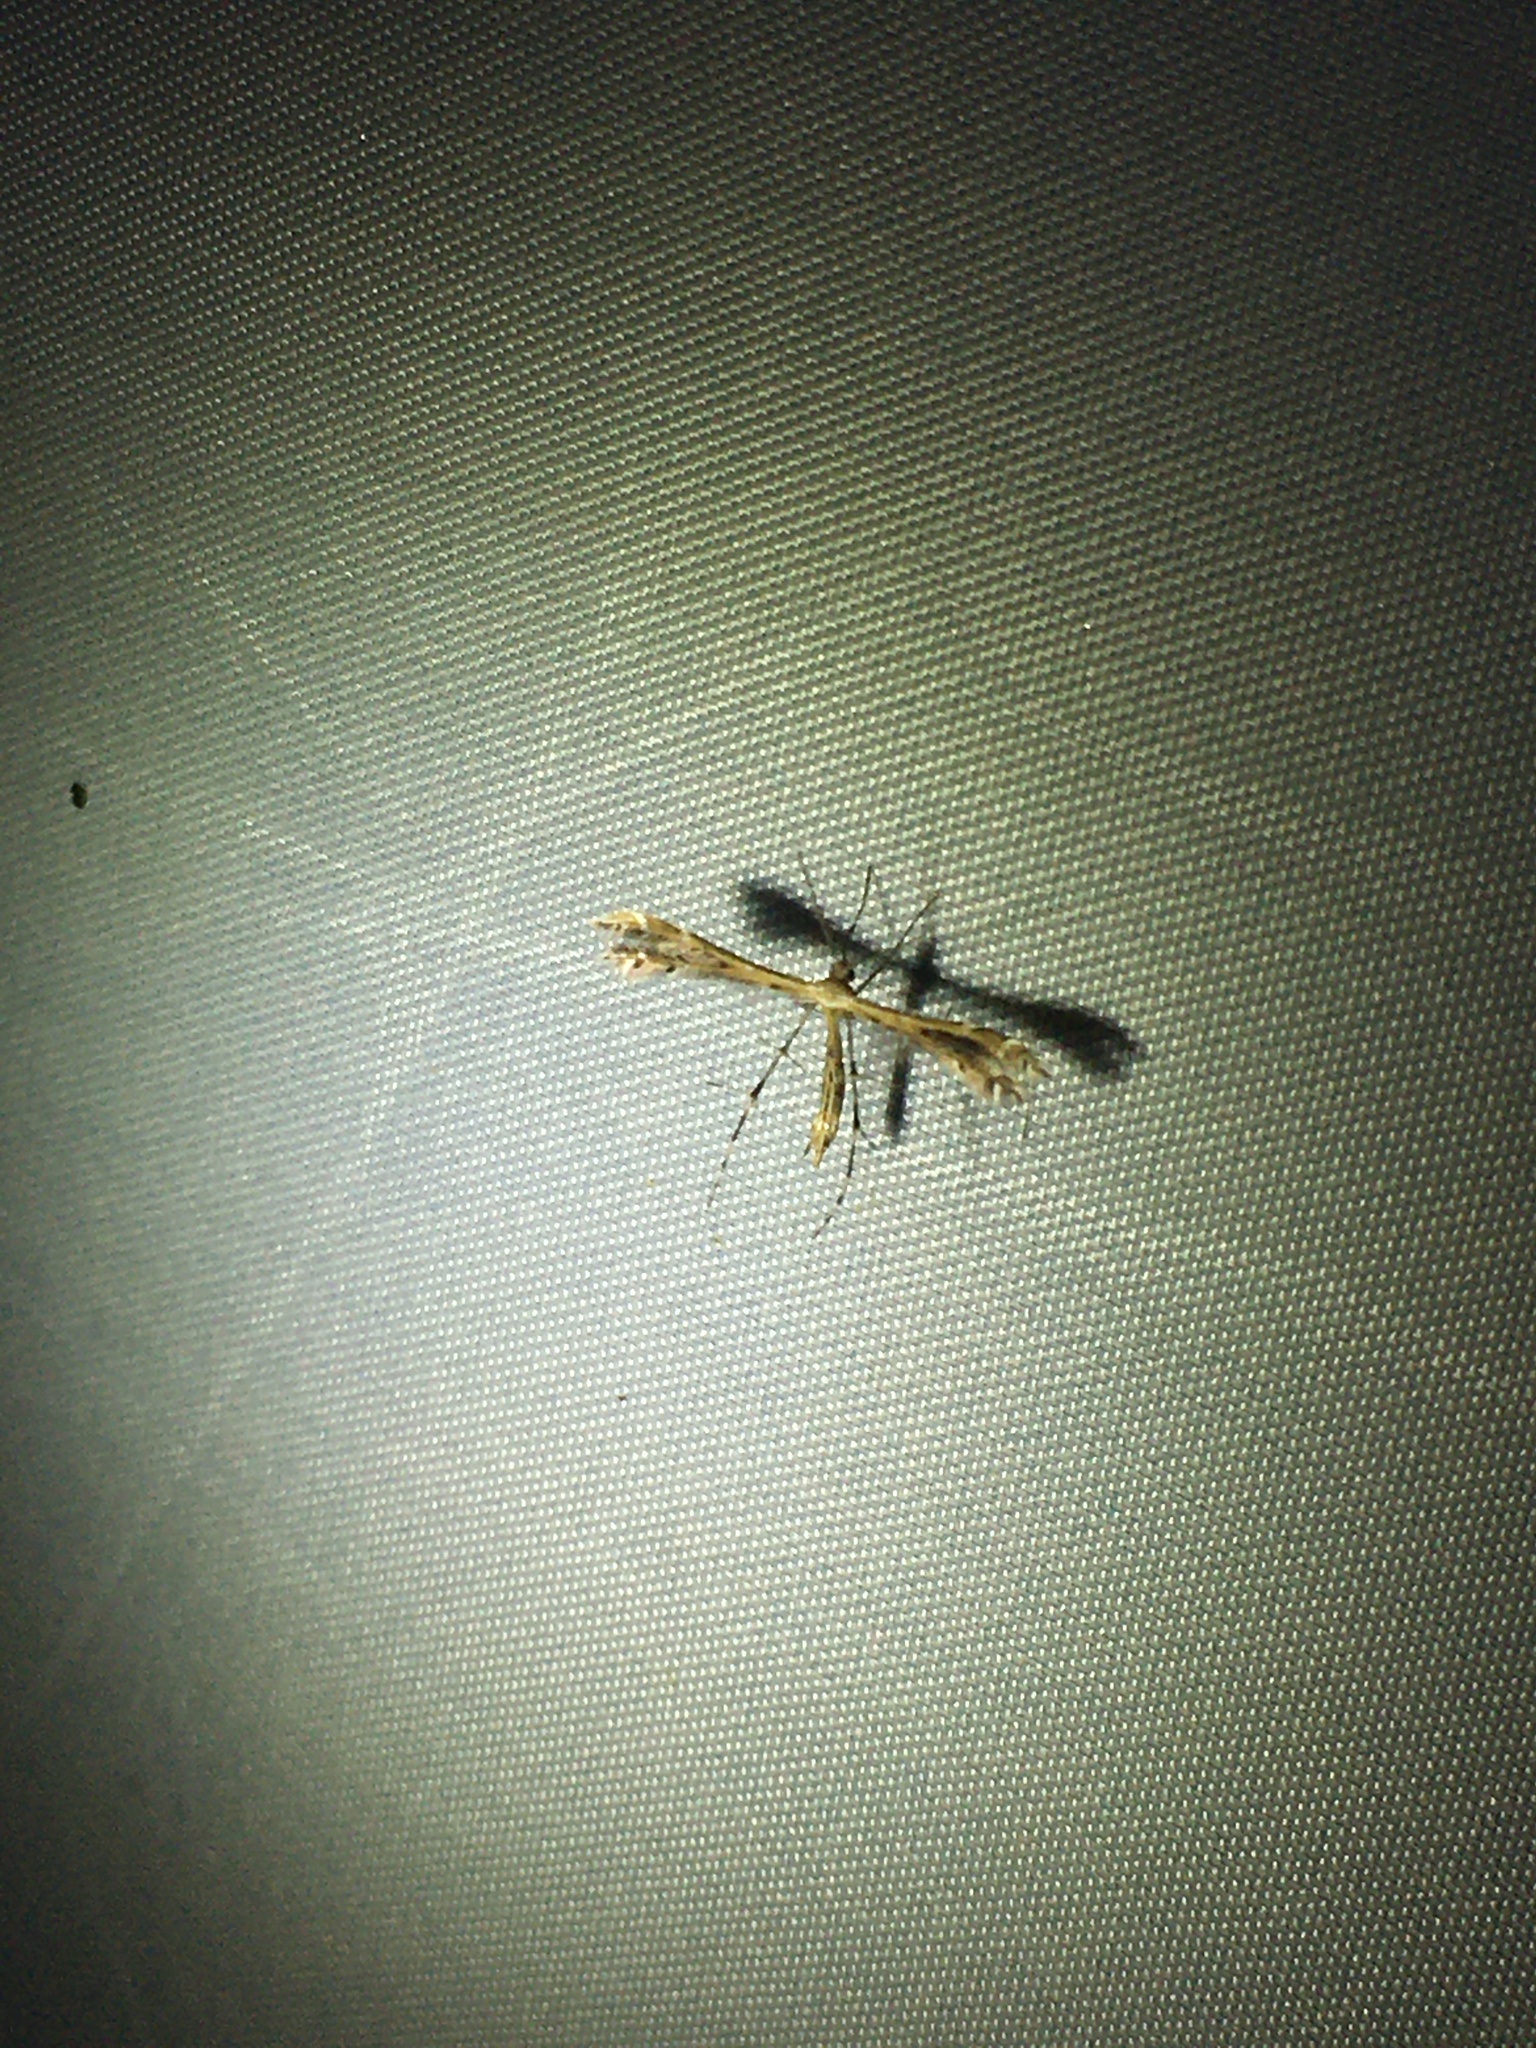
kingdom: Animalia
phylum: Arthropoda
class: Insecta
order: Lepidoptera
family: Pterophoridae
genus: Buckleria
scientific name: Buckleria parvulus
